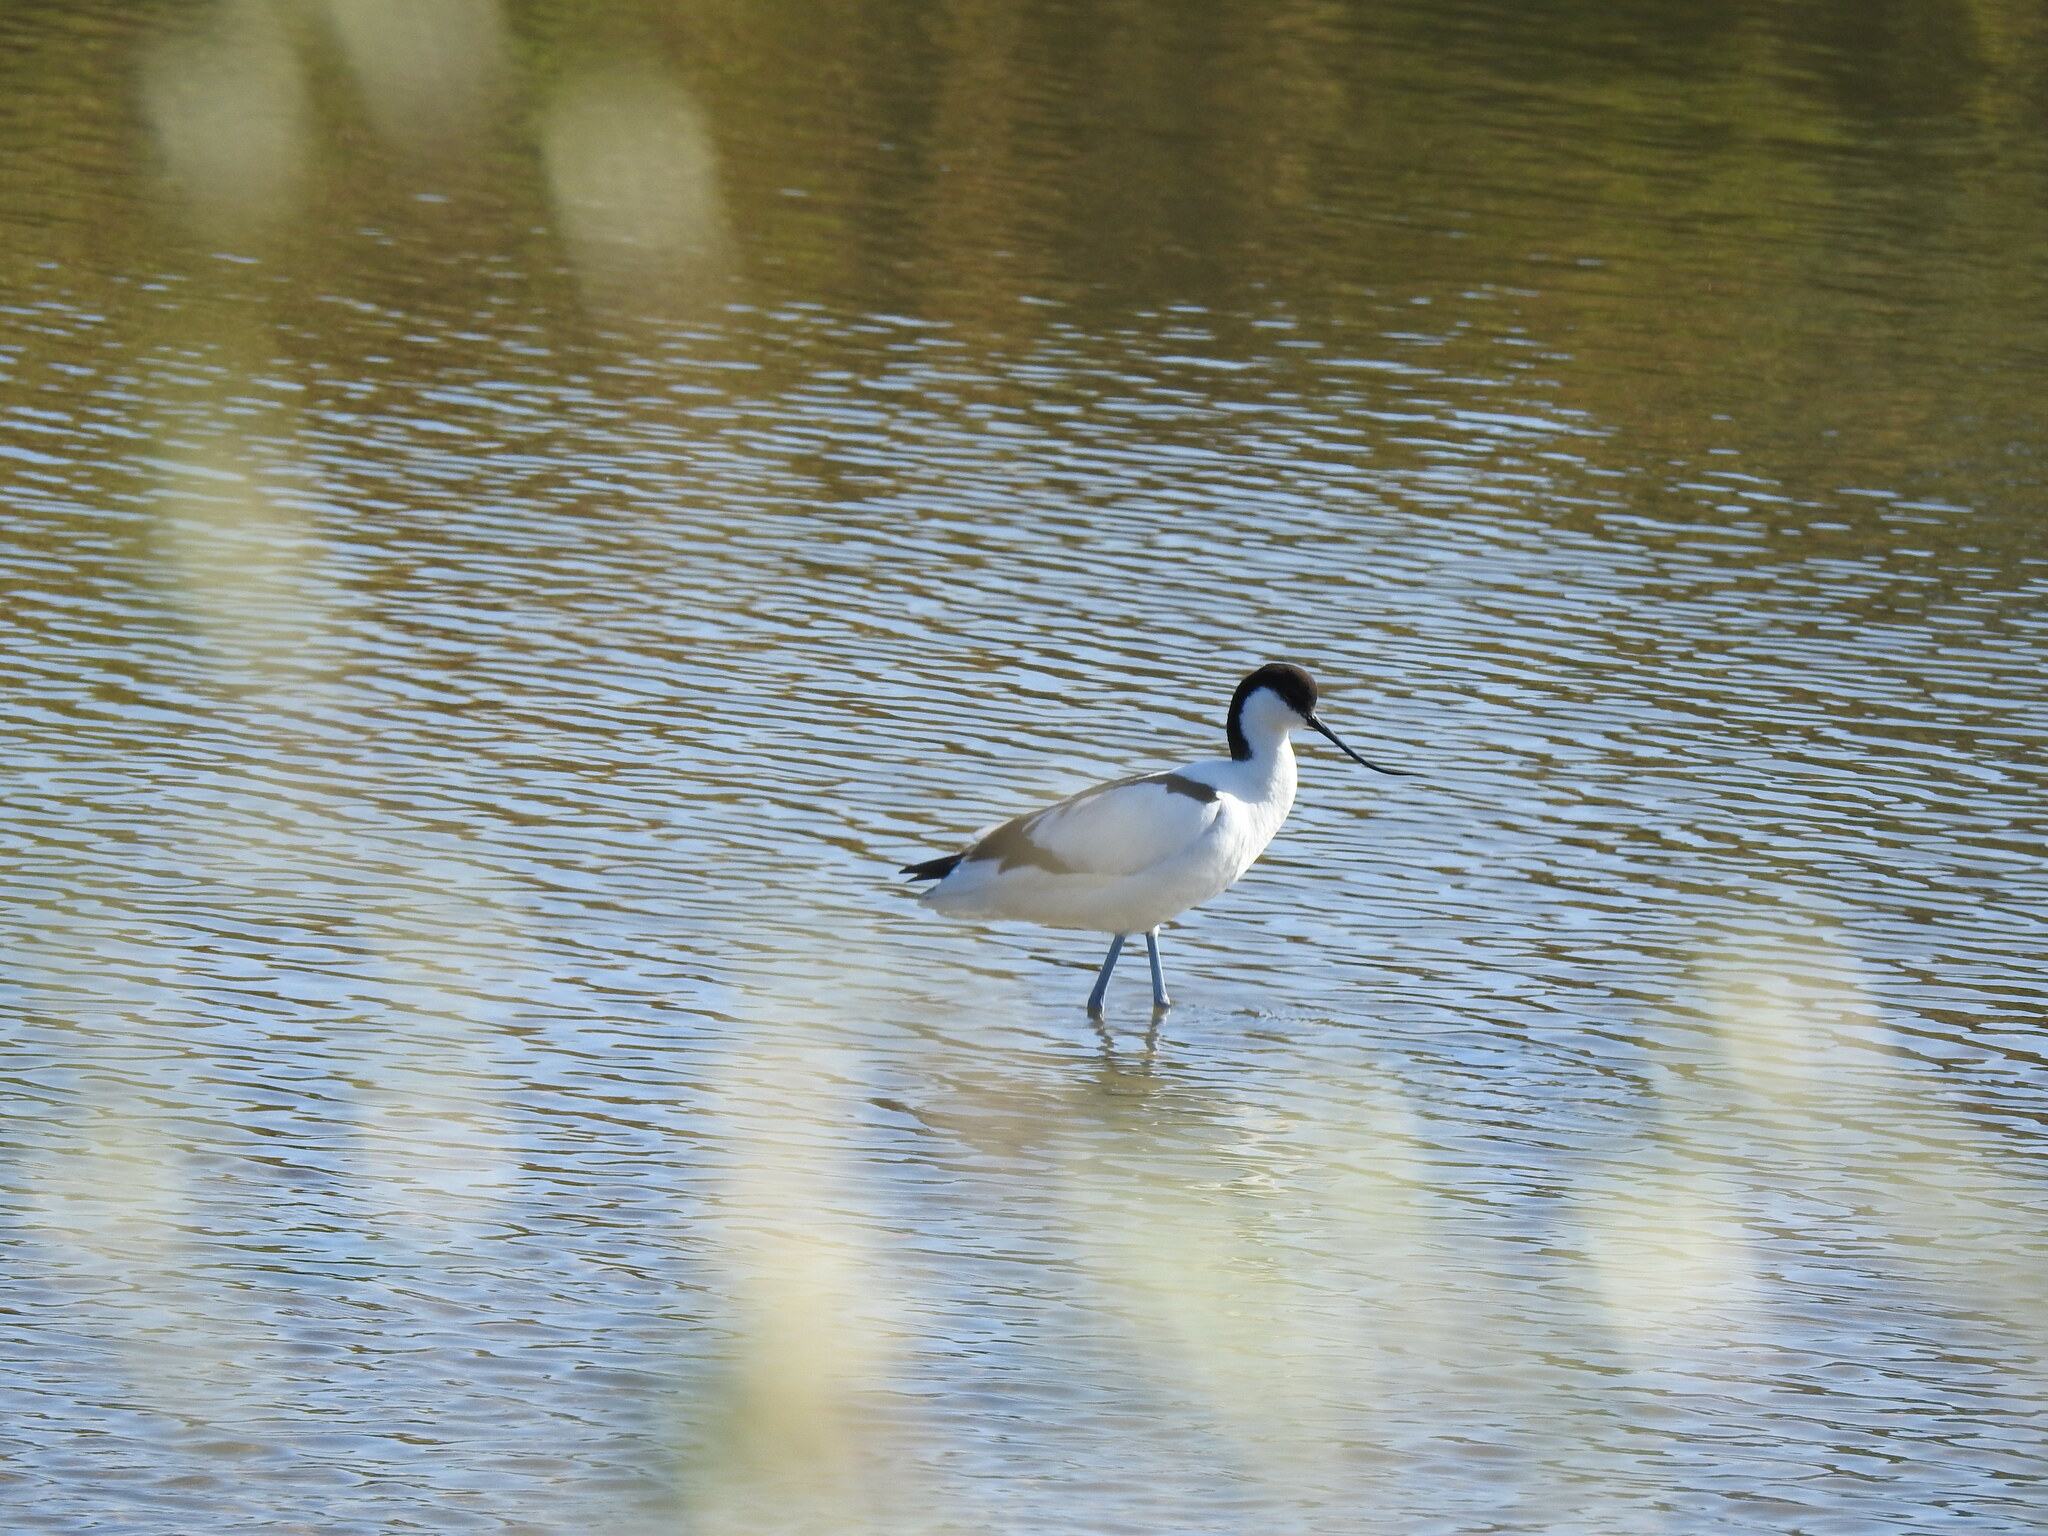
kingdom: Animalia
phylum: Chordata
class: Aves
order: Charadriiformes
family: Recurvirostridae
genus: Recurvirostra
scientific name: Recurvirostra avosetta
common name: Pied avocet
